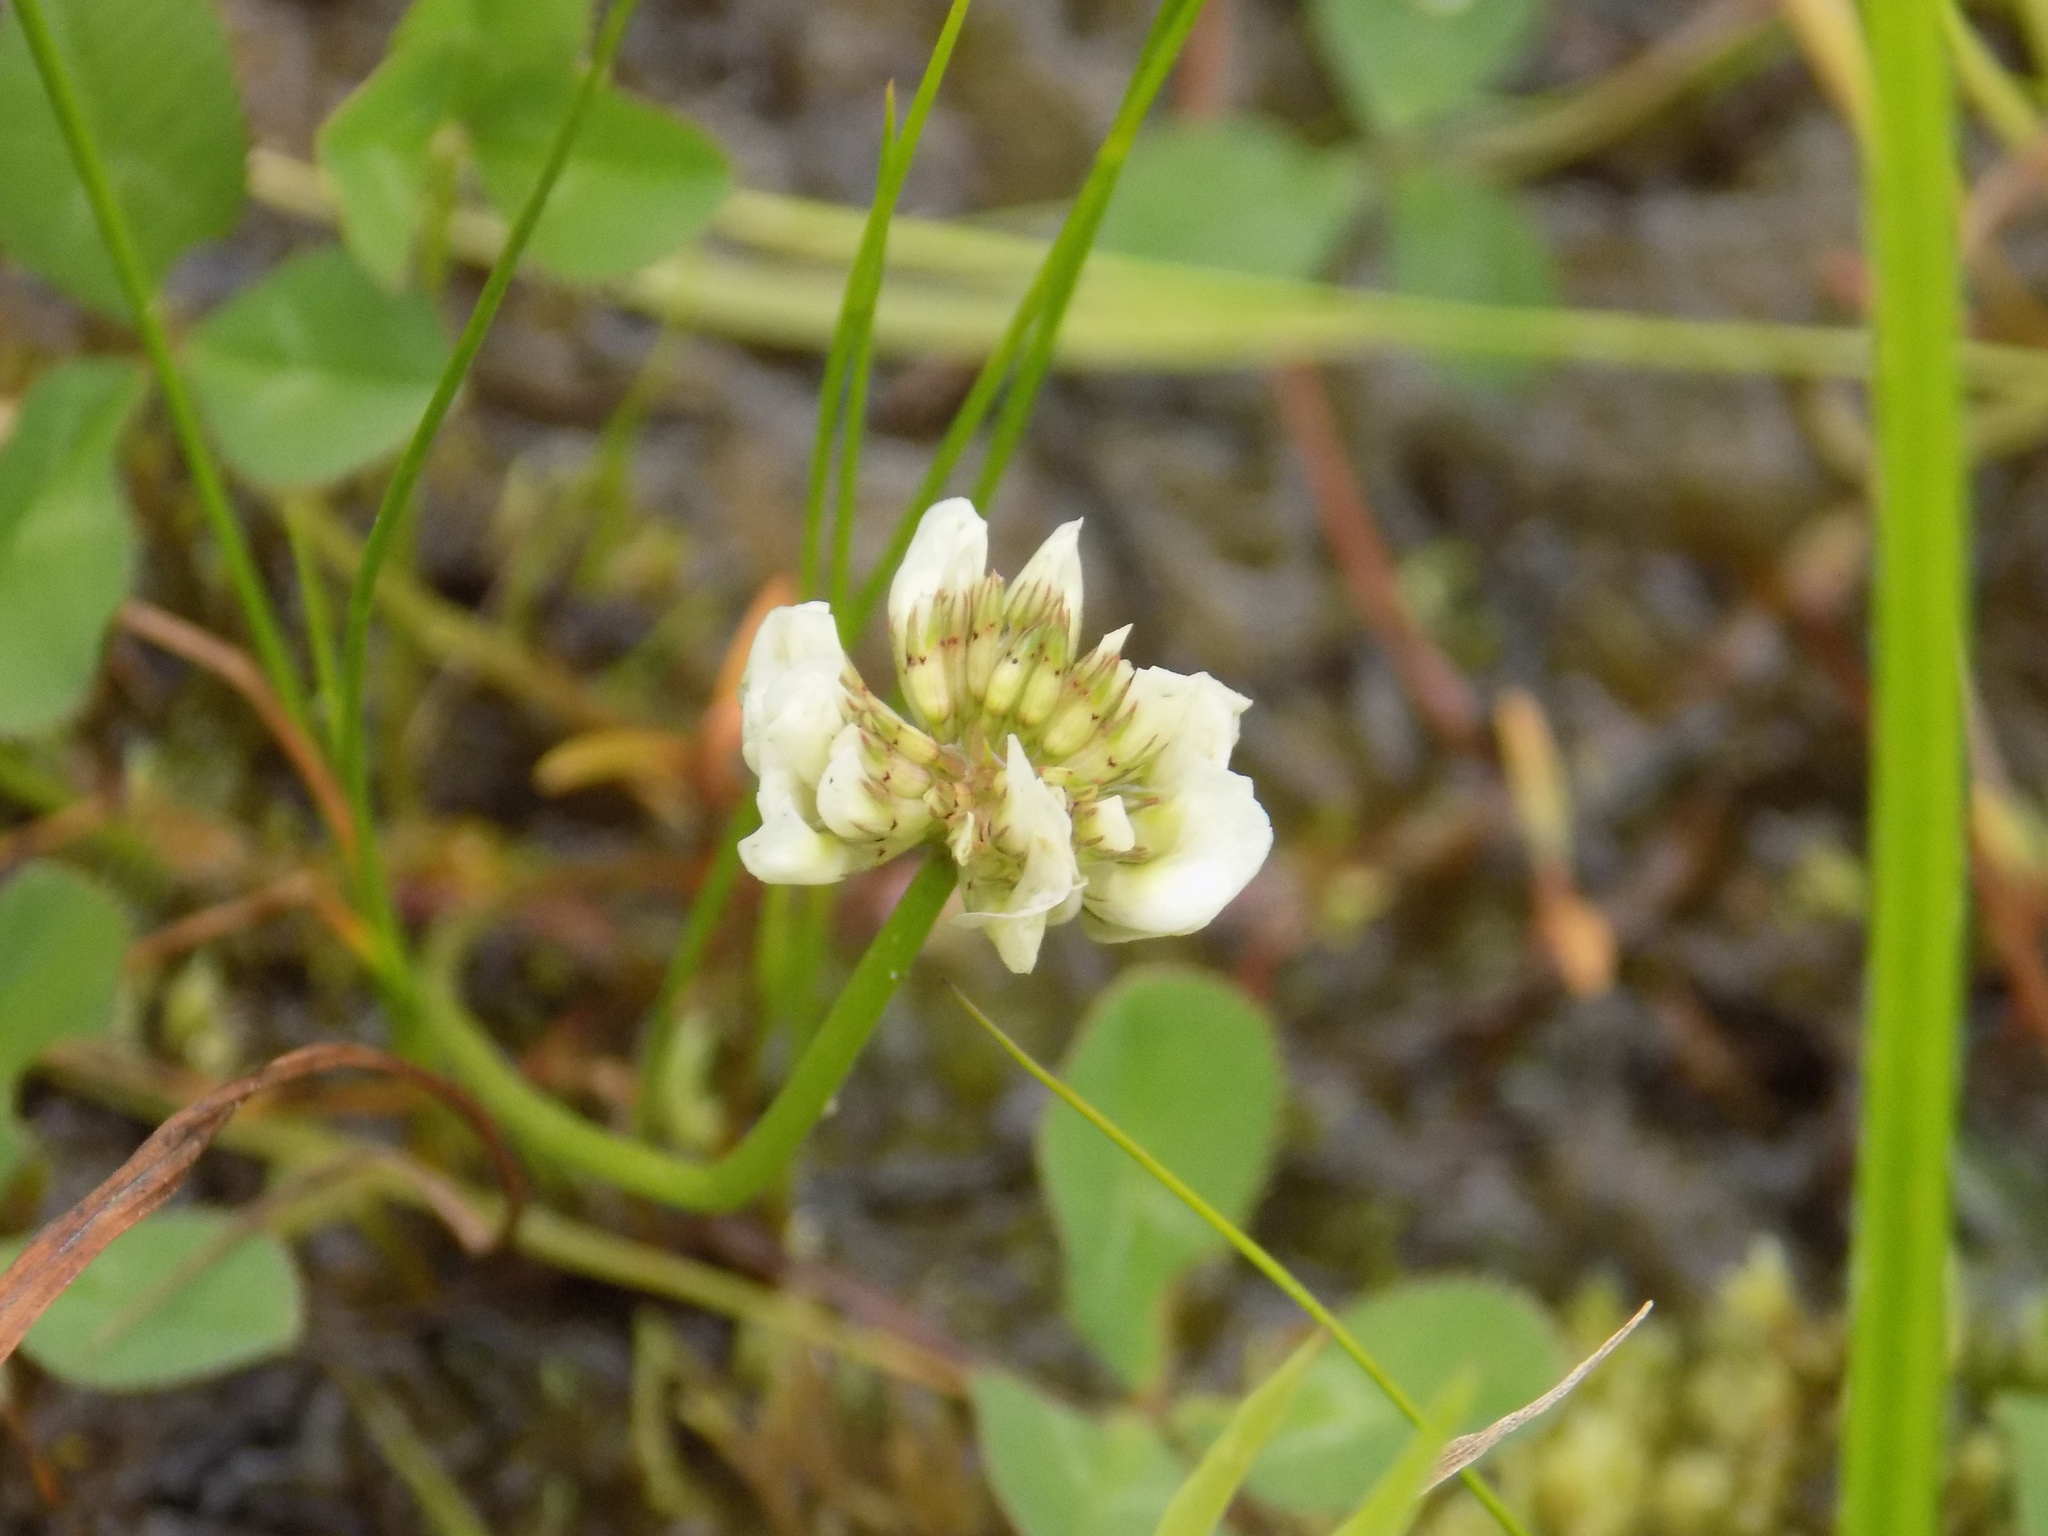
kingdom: Plantae
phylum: Tracheophyta
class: Magnoliopsida
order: Fabales
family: Fabaceae
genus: Trifolium
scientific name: Trifolium repens
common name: White clover
